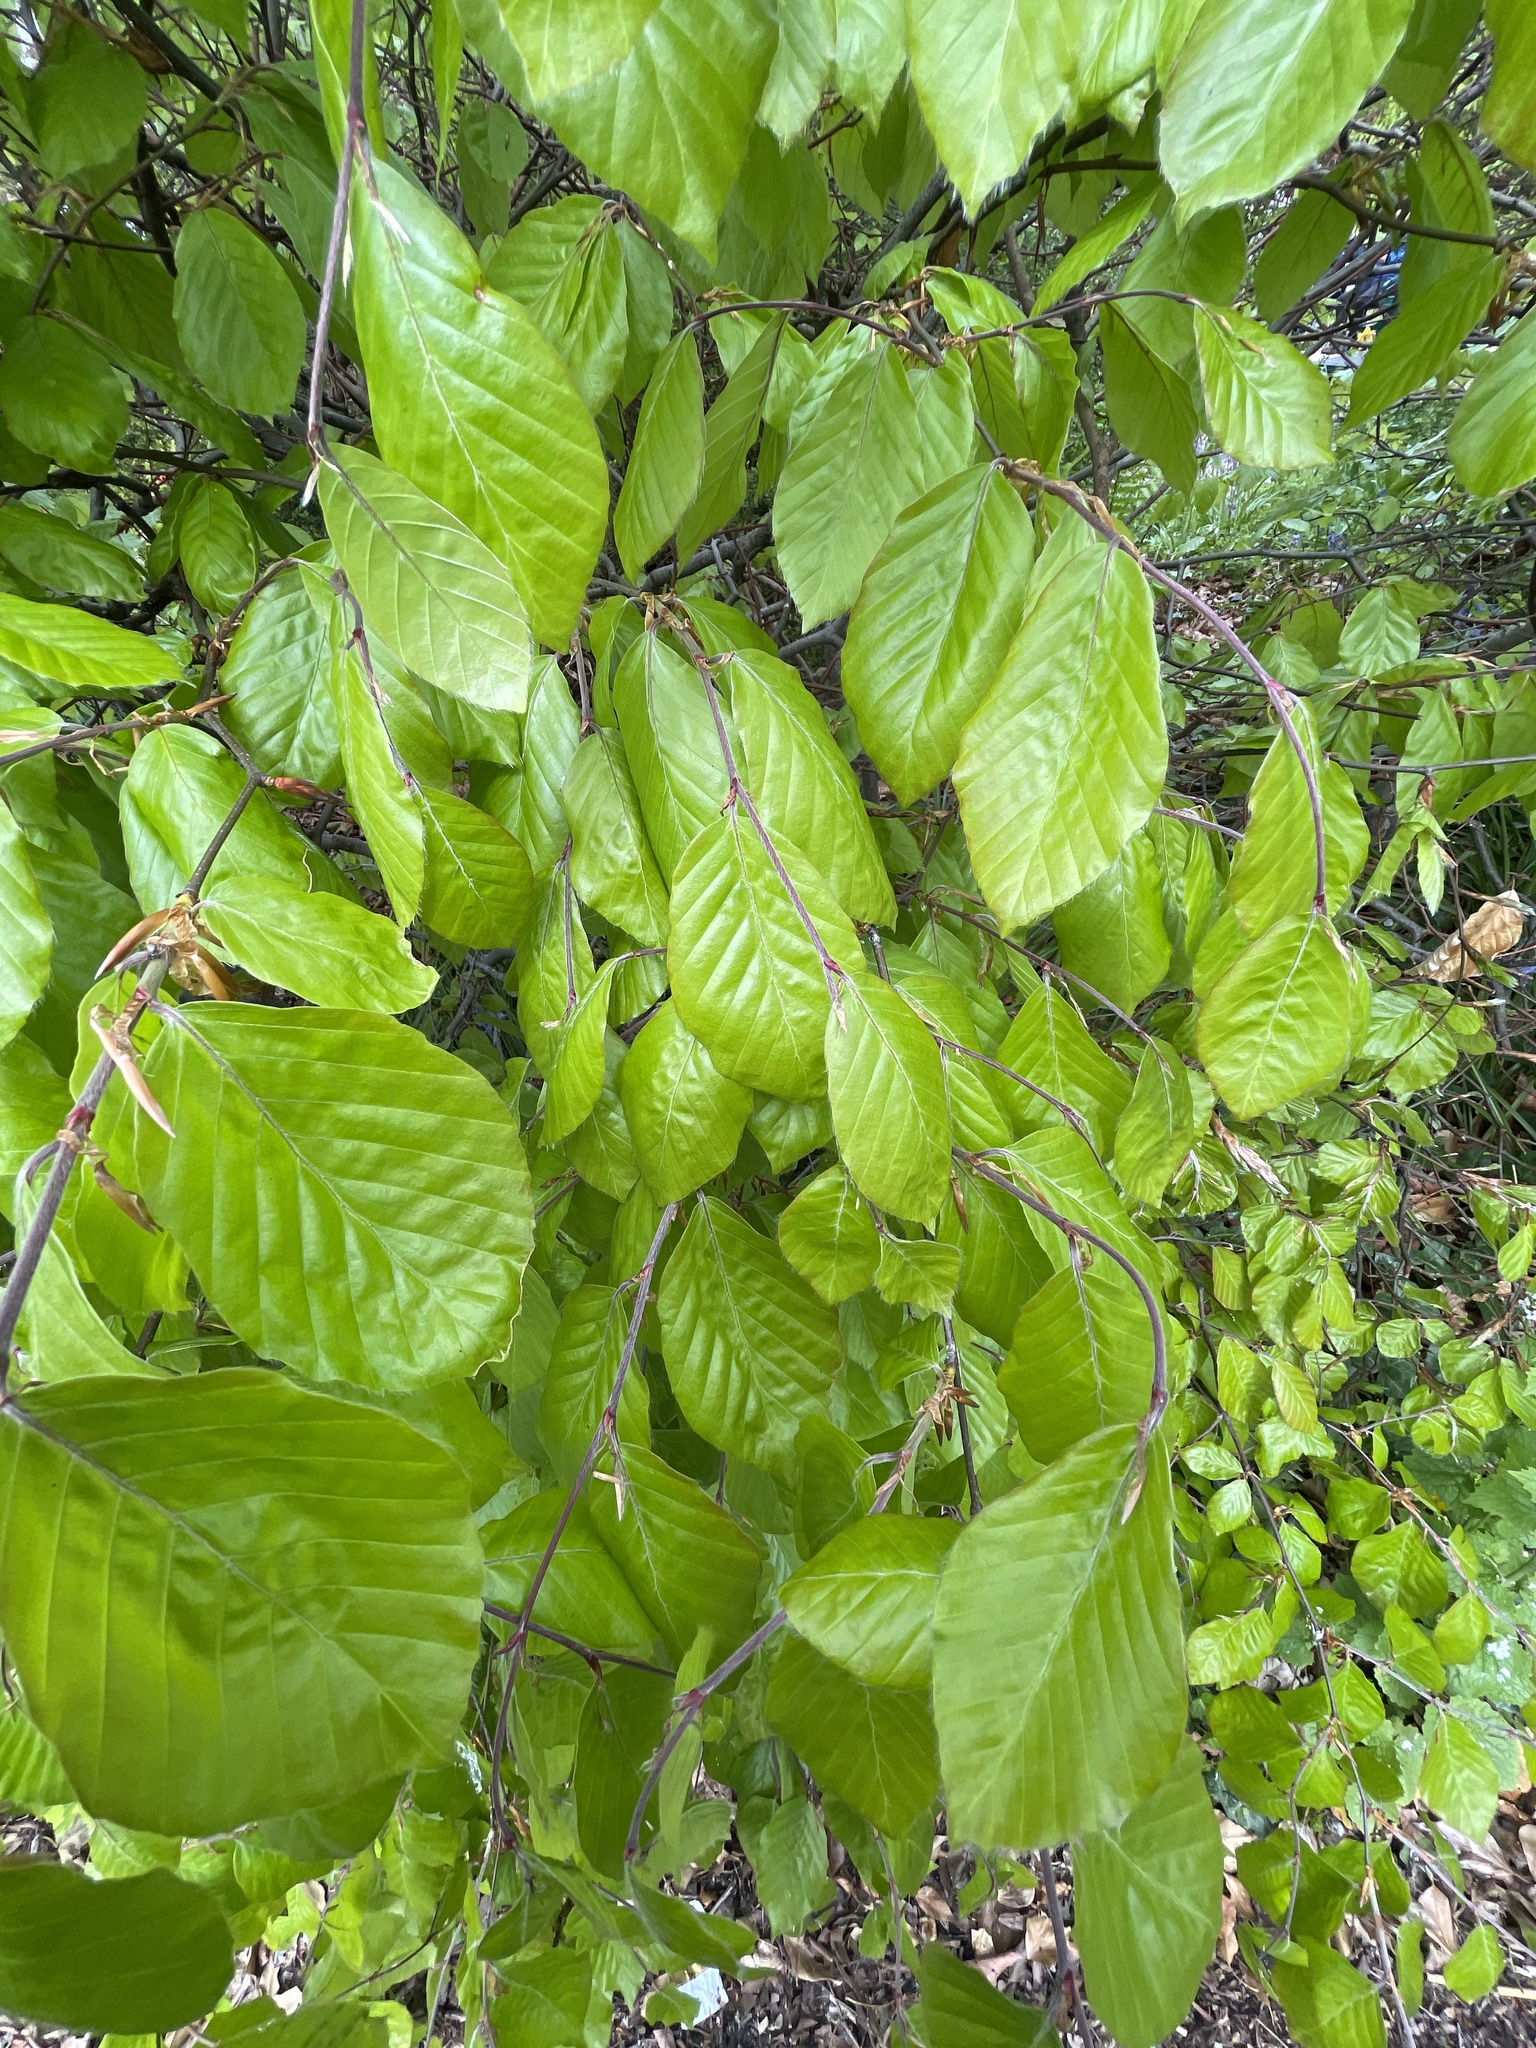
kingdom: Plantae
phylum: Tracheophyta
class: Magnoliopsida
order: Fagales
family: Fagaceae
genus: Fagus
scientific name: Fagus sylvatica
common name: Beech
